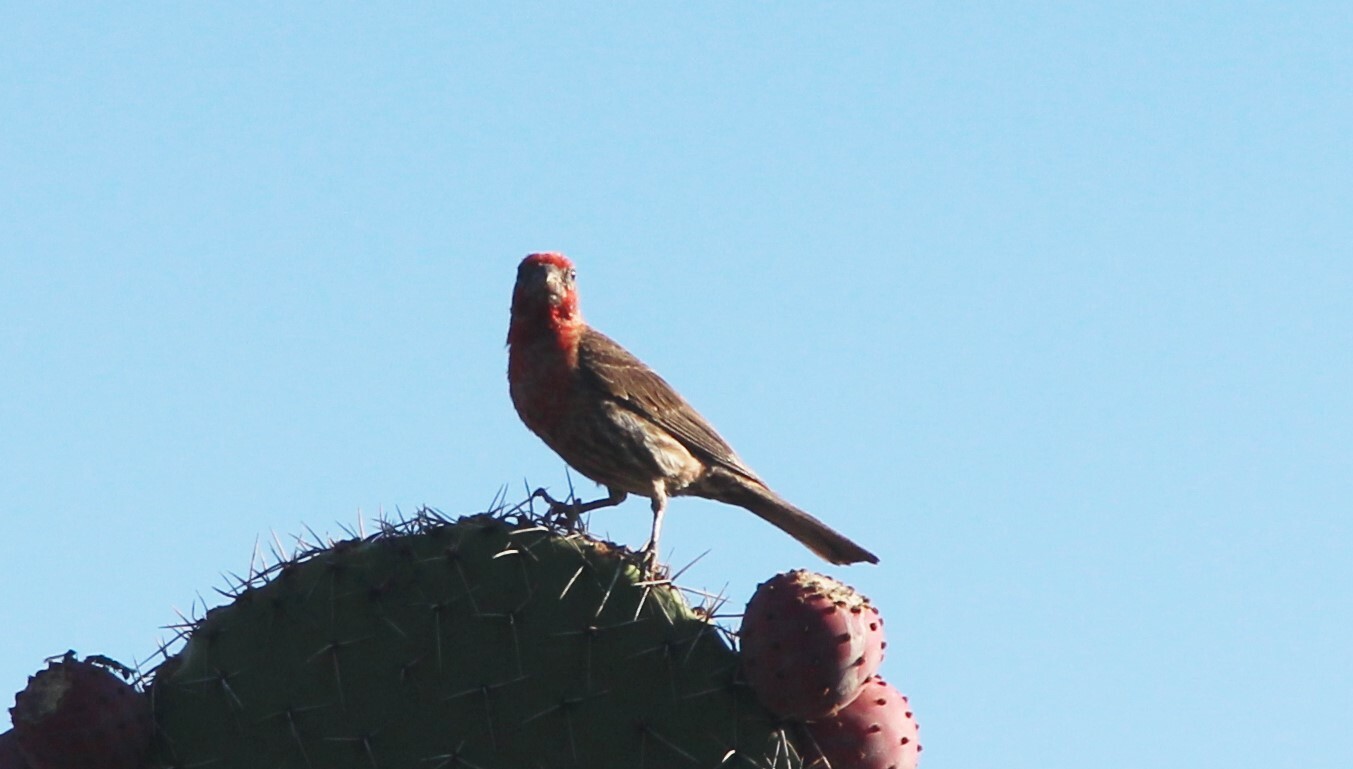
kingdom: Animalia
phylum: Chordata
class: Aves
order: Passeriformes
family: Fringillidae
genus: Haemorhous
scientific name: Haemorhous mexicanus
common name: House finch
